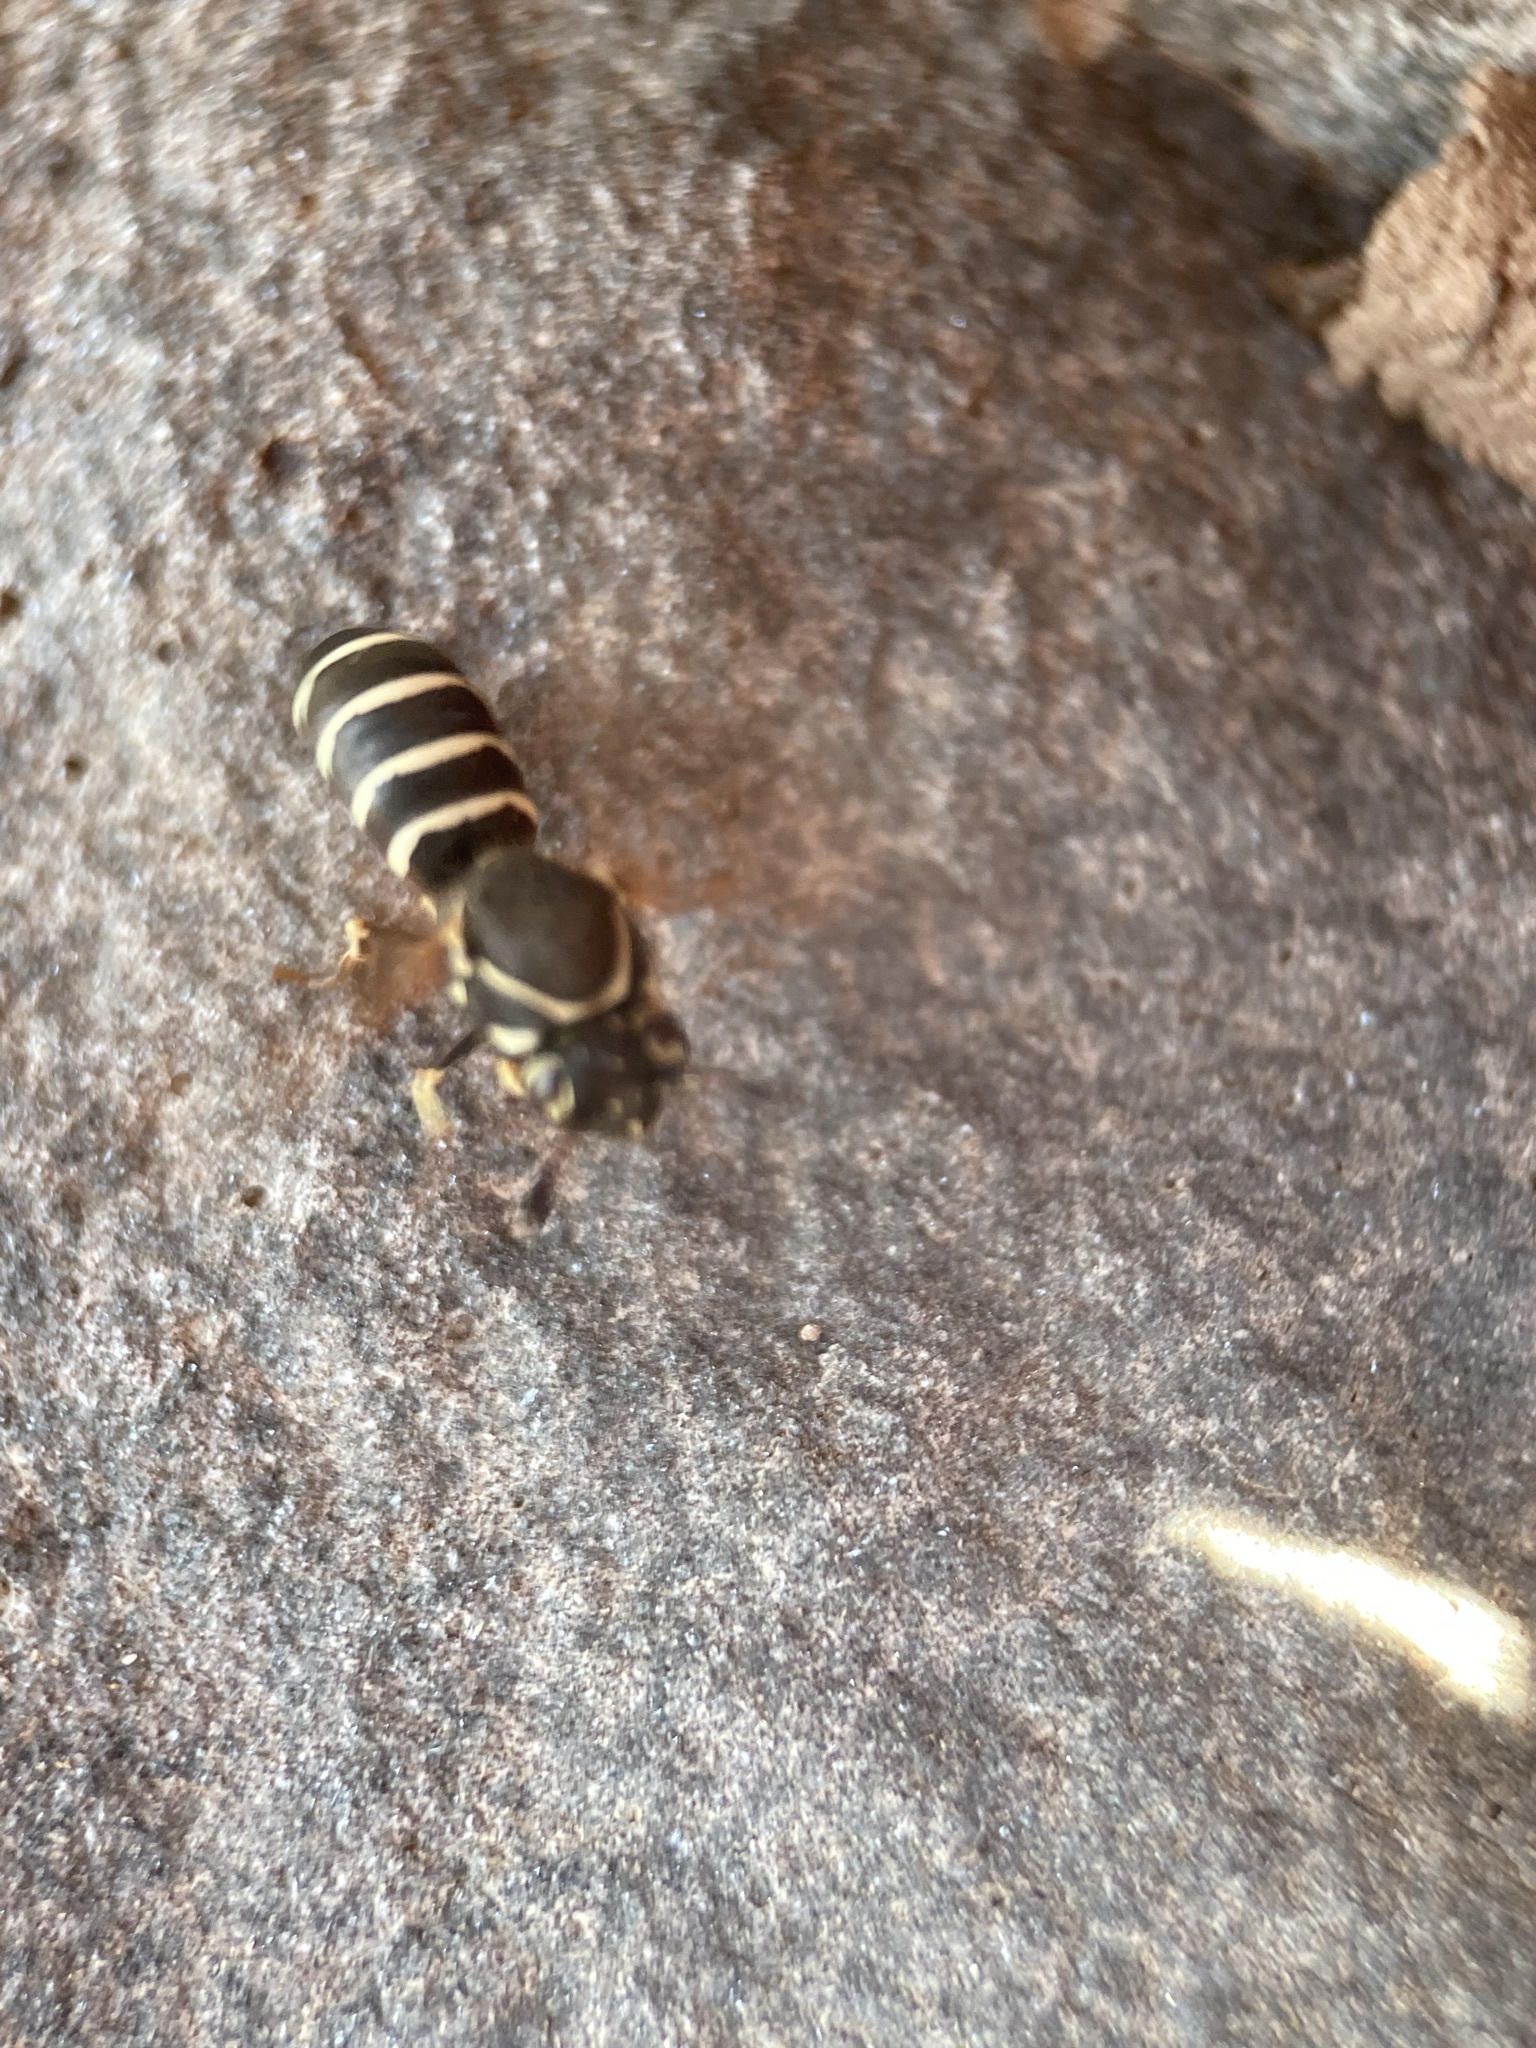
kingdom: Animalia
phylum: Arthropoda
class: Insecta
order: Hymenoptera
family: Masaridae
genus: Pseudomasaris
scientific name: Pseudomasaris zonalis
